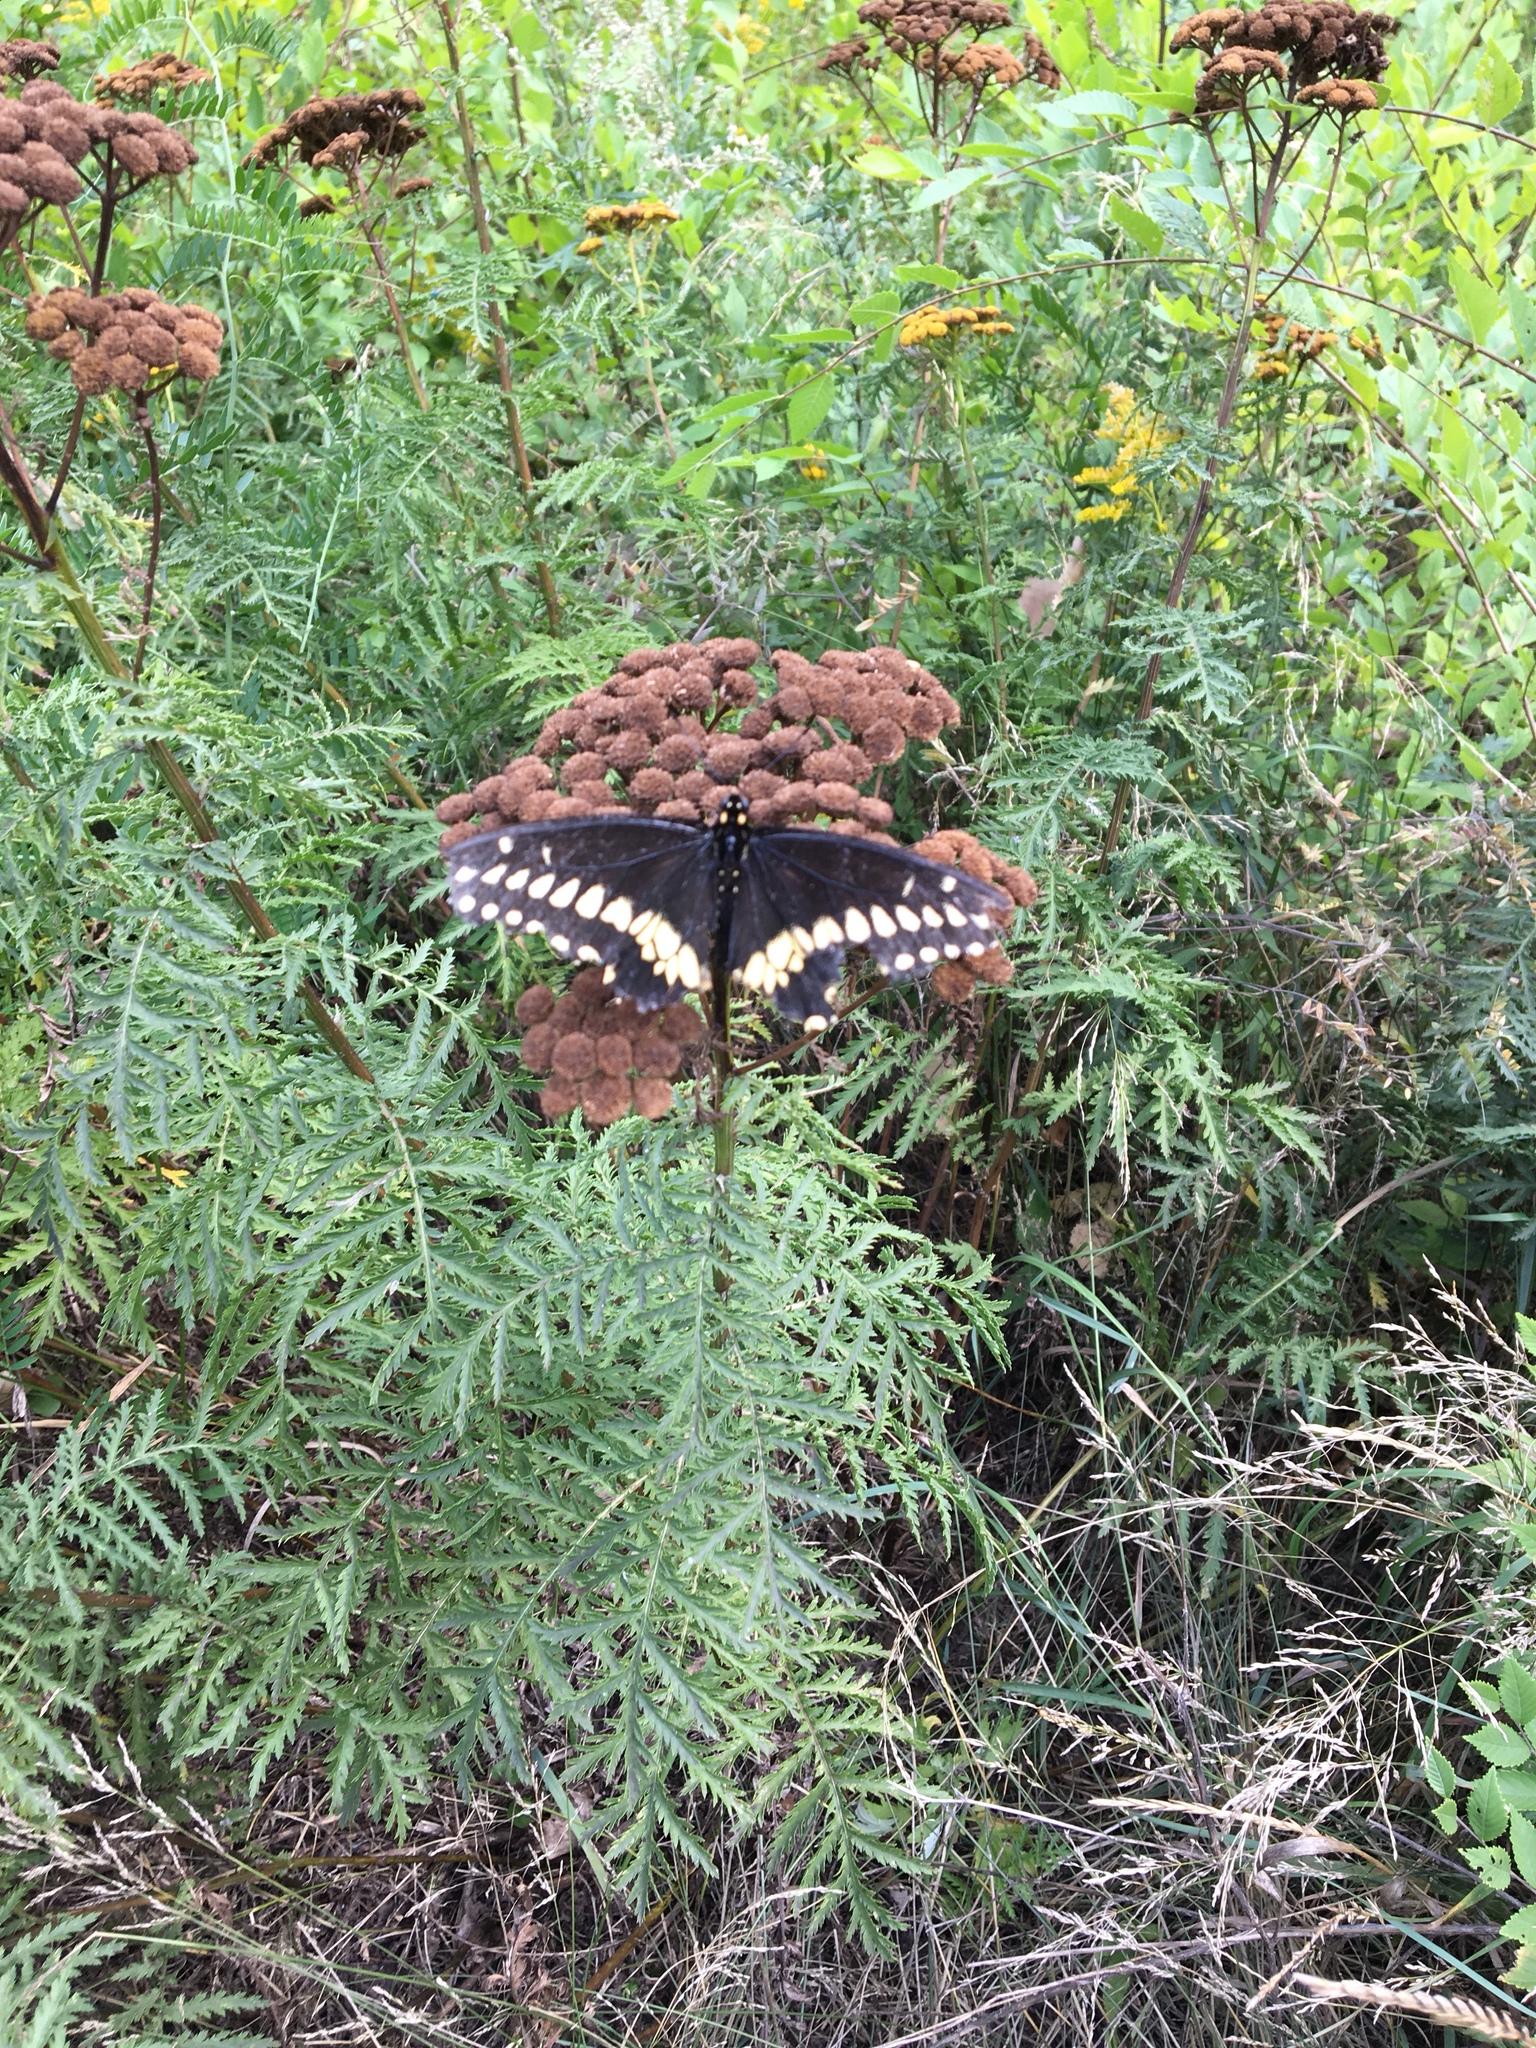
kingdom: Animalia
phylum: Arthropoda
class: Insecta
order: Lepidoptera
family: Papilionidae
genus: Papilio
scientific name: Papilio polyxenes
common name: Black swallowtail
